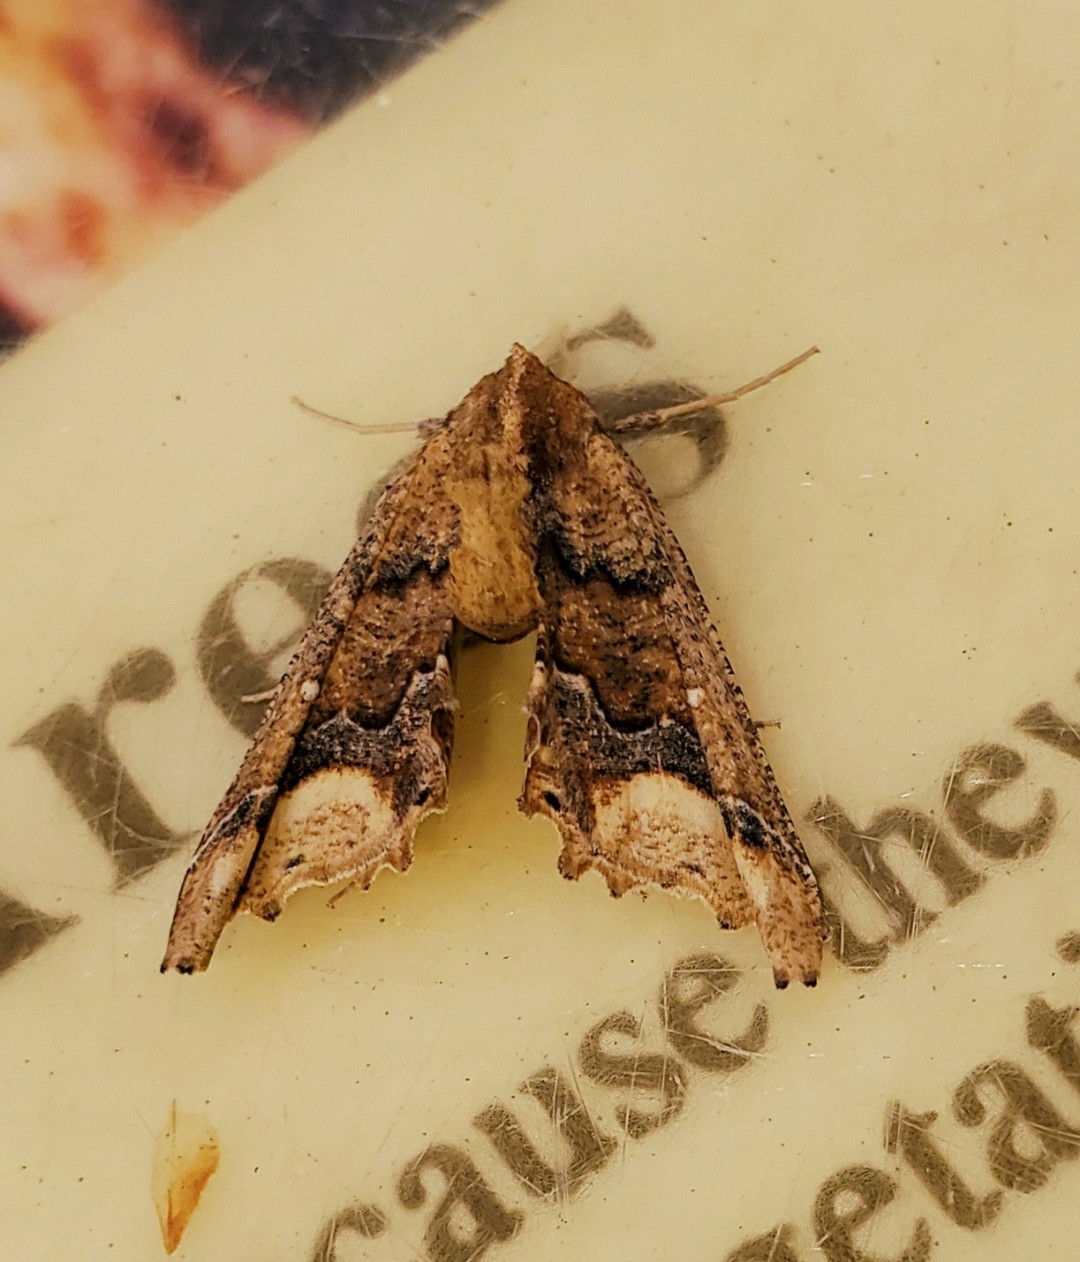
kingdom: Animalia
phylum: Arthropoda
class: Insecta
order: Lepidoptera
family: Geometridae
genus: Pero
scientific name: Pero meskaria
